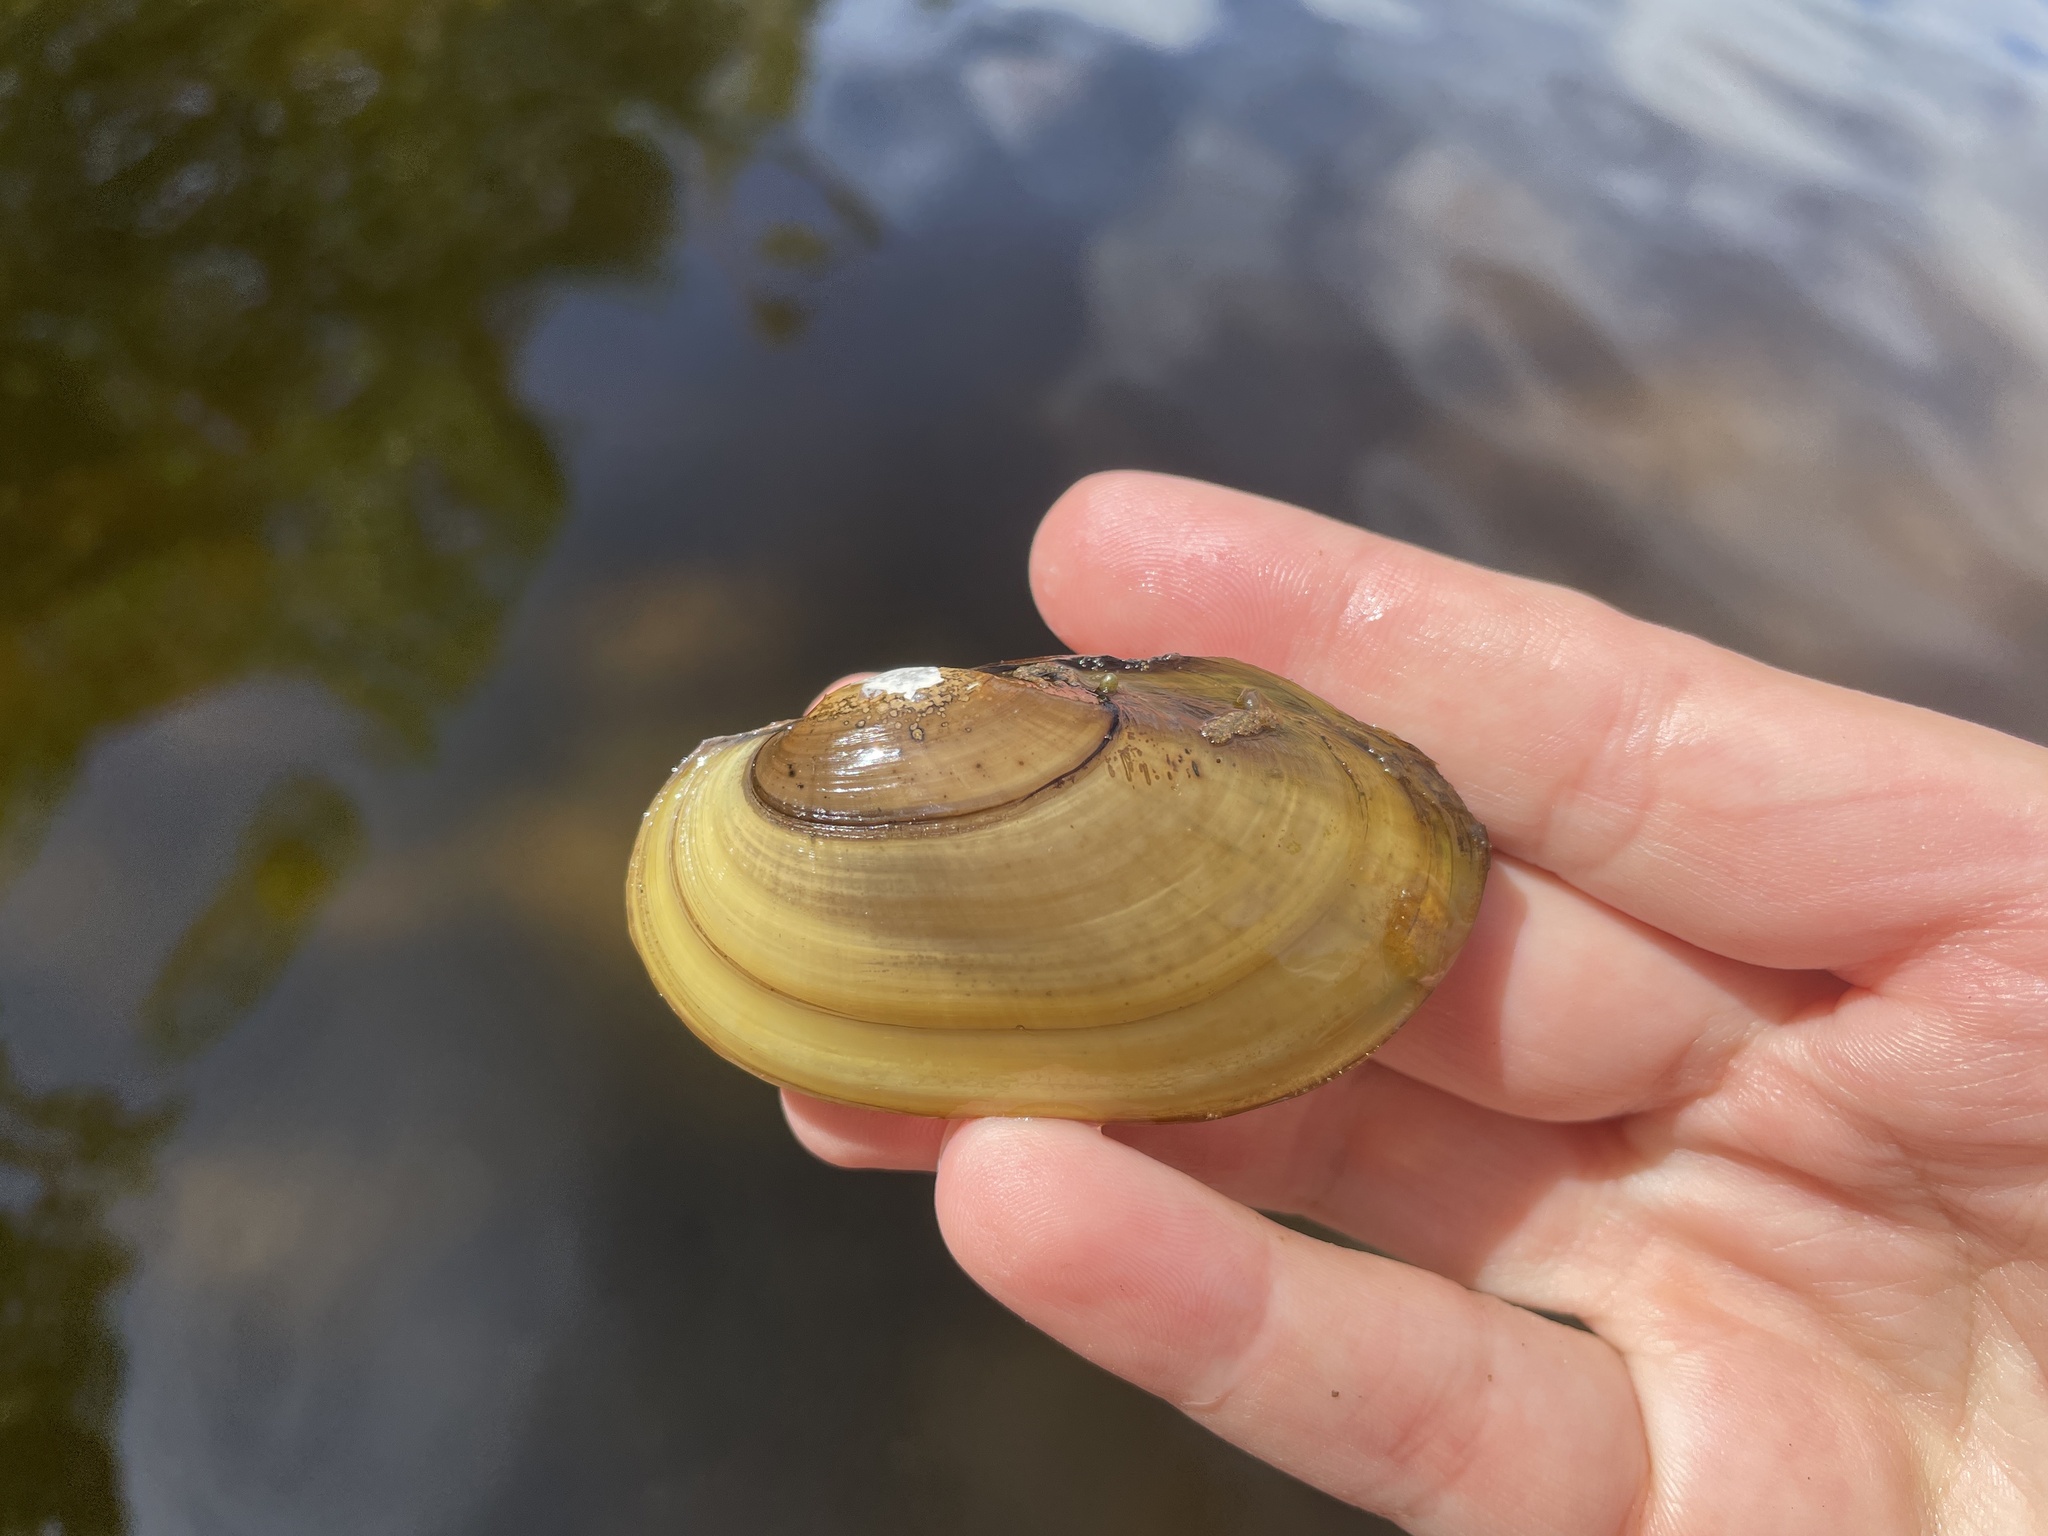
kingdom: Animalia
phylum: Mollusca
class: Bivalvia
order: Unionida
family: Unionidae
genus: Lampsilis
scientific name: Lampsilis siliquoidea
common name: Fatmucket
